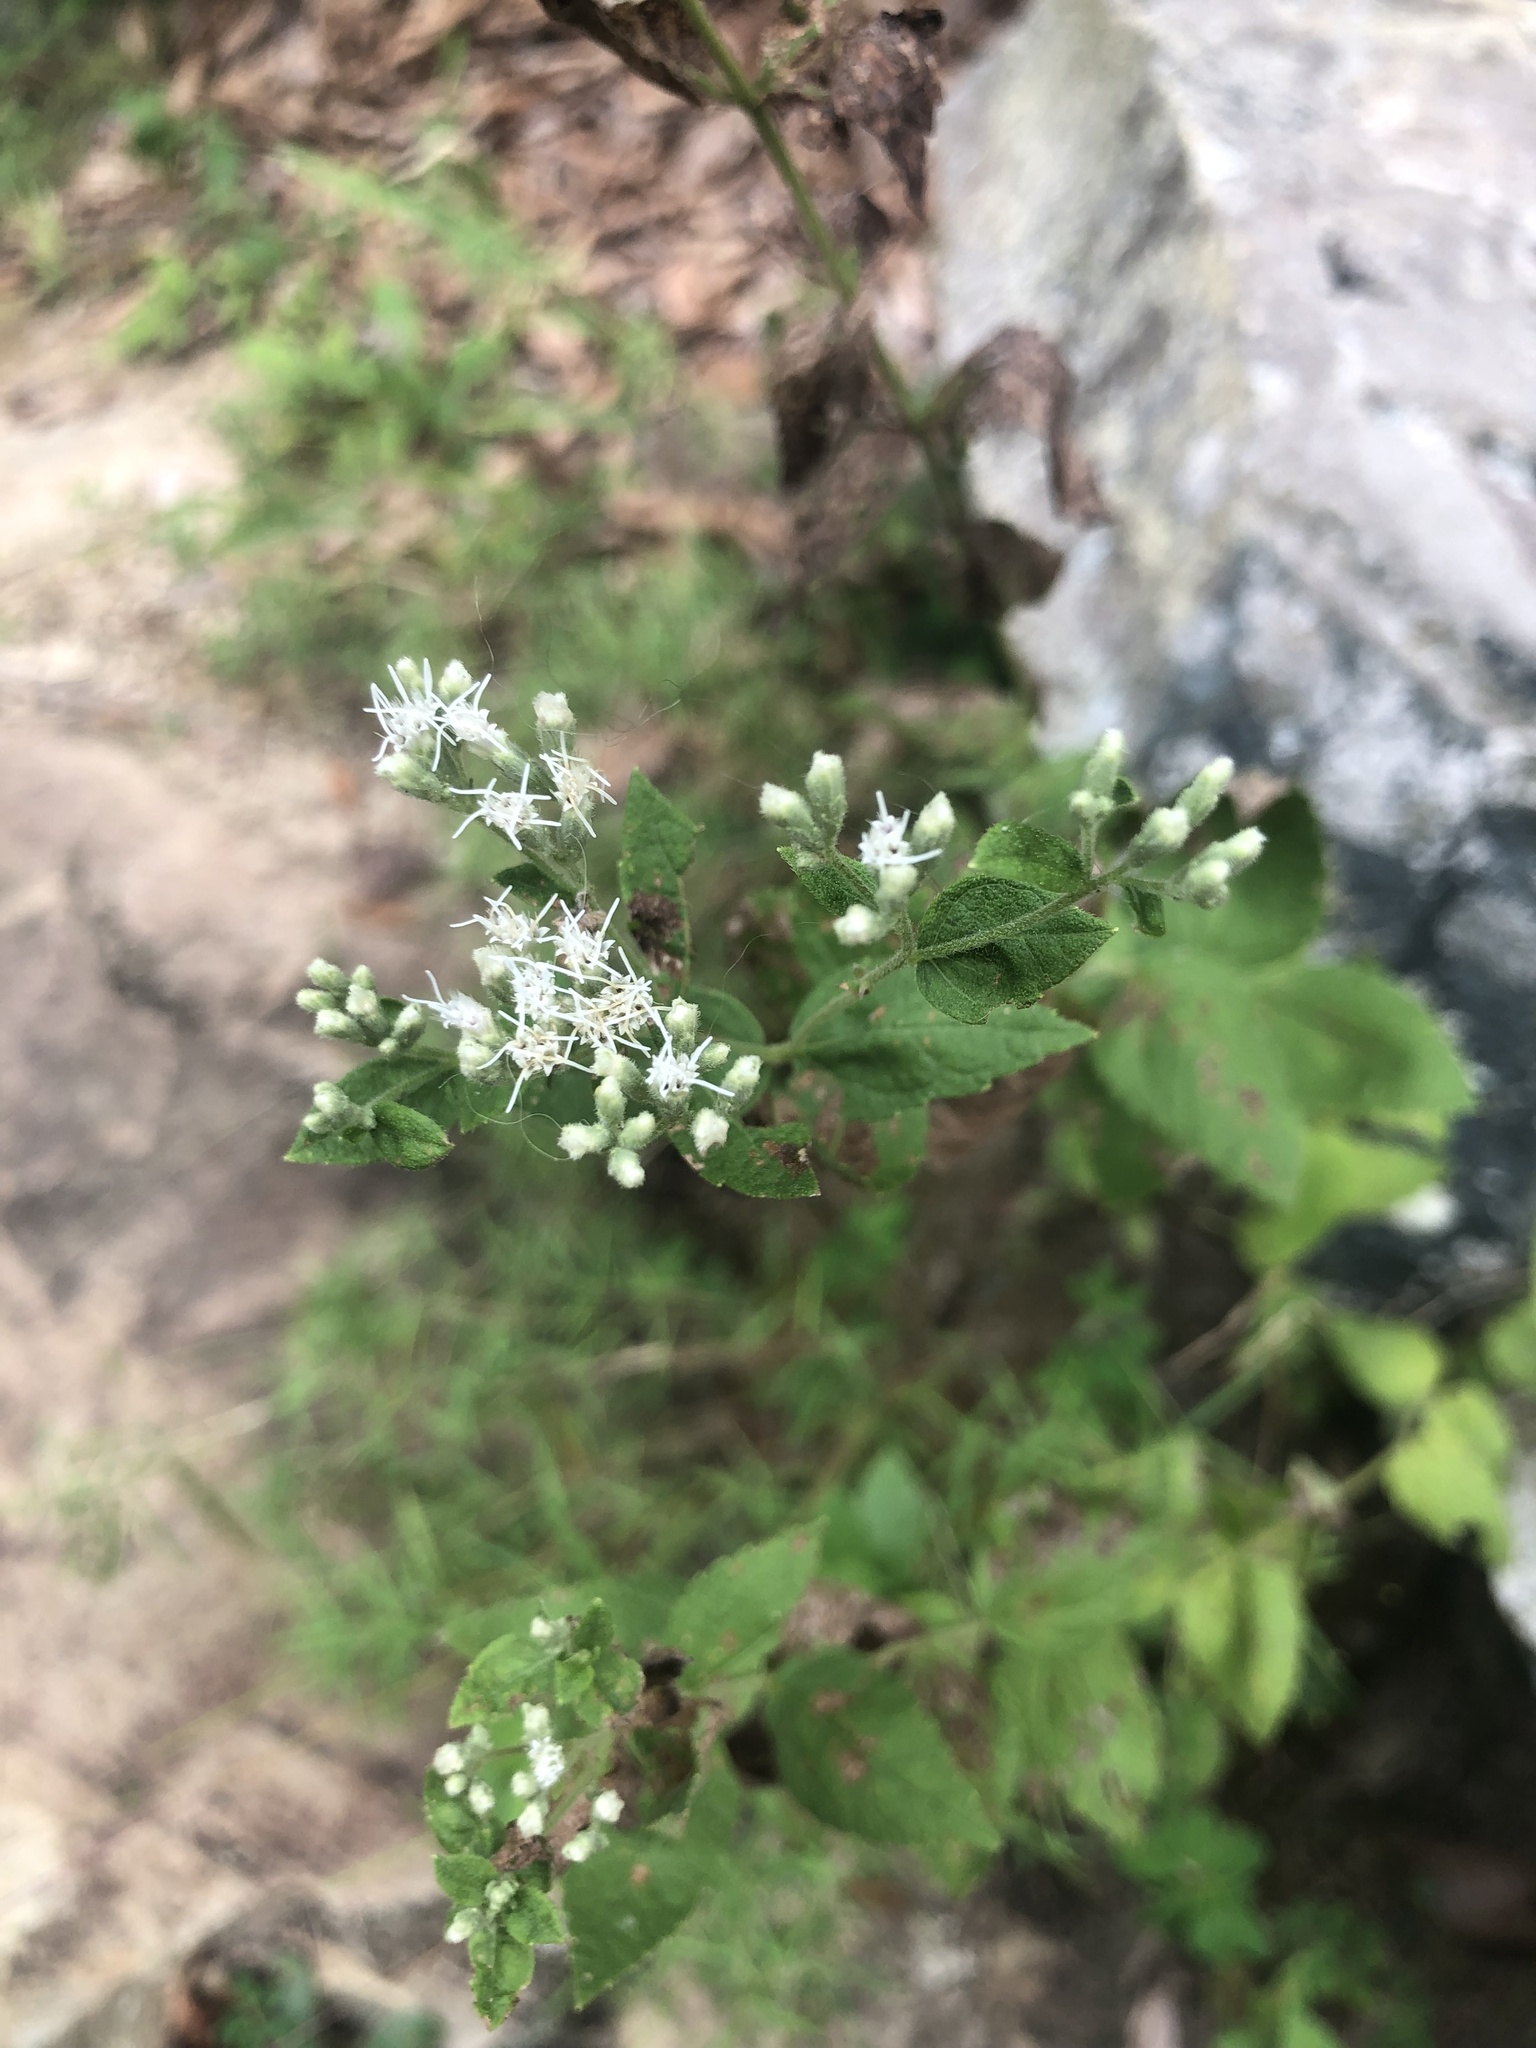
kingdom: Plantae
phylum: Tracheophyta
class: Magnoliopsida
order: Asterales
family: Asteraceae
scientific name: Asteraceae
